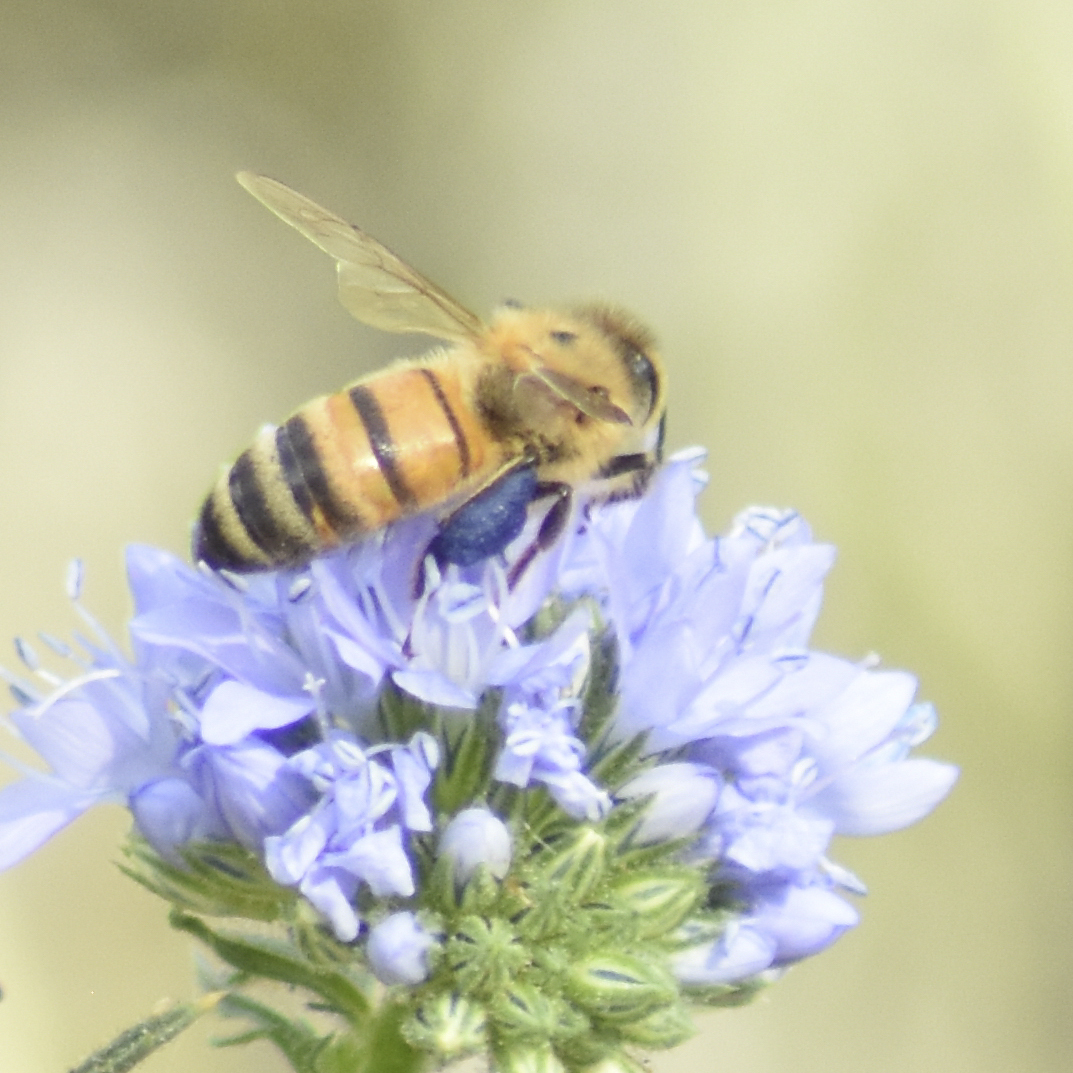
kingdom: Animalia
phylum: Arthropoda
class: Insecta
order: Hymenoptera
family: Apidae
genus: Apis
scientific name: Apis mellifera
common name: Honey bee
